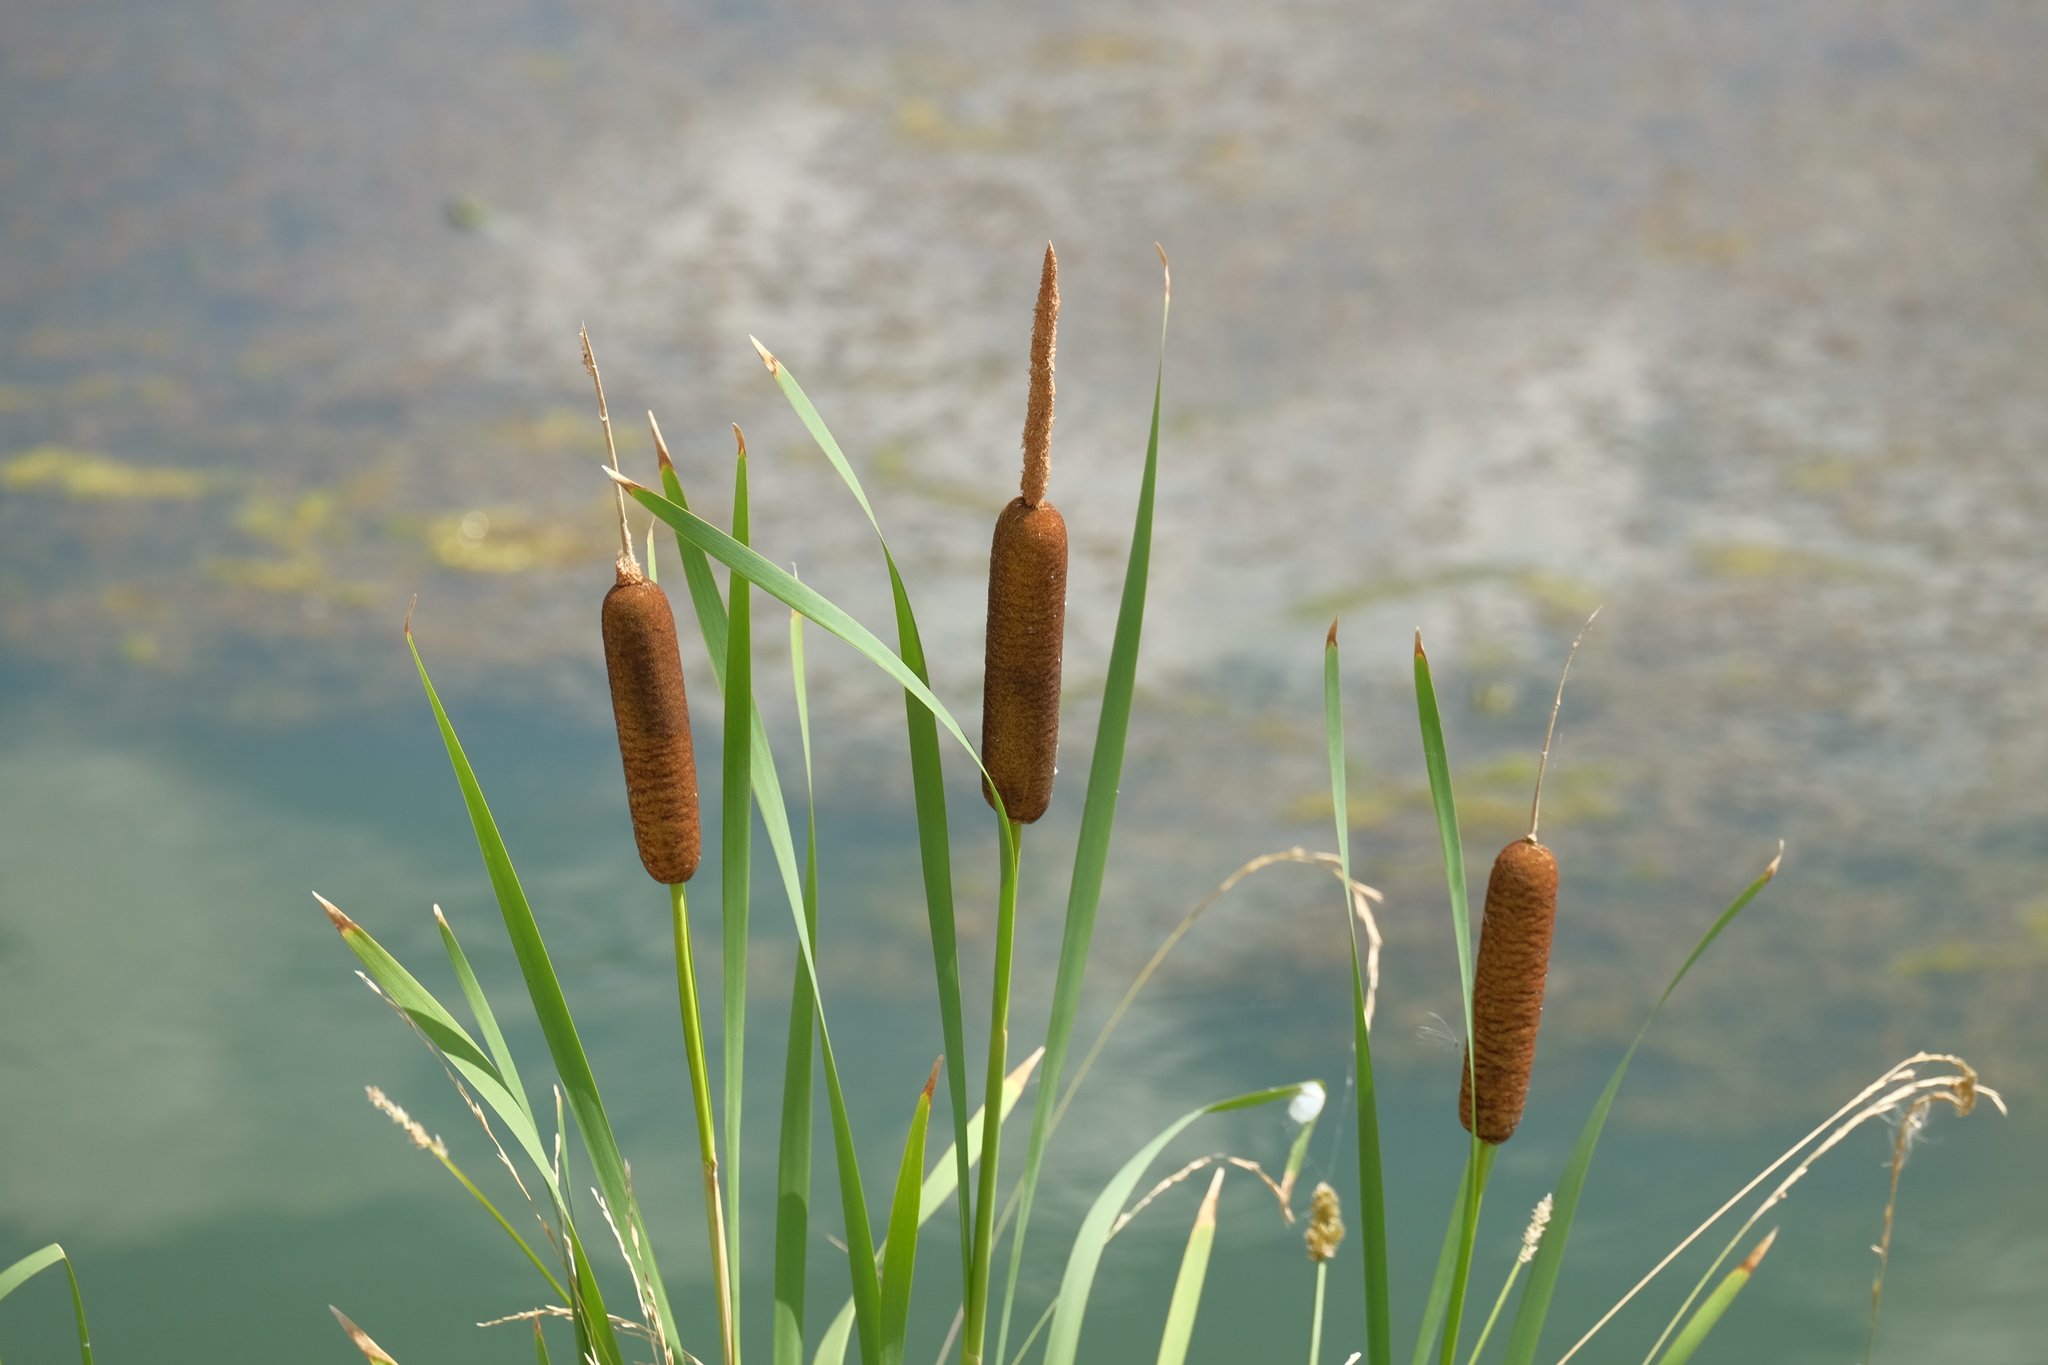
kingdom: Plantae
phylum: Tracheophyta
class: Liliopsida
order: Poales
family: Typhaceae
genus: Typha
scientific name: Typha latifolia
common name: Broadleaf cattail
